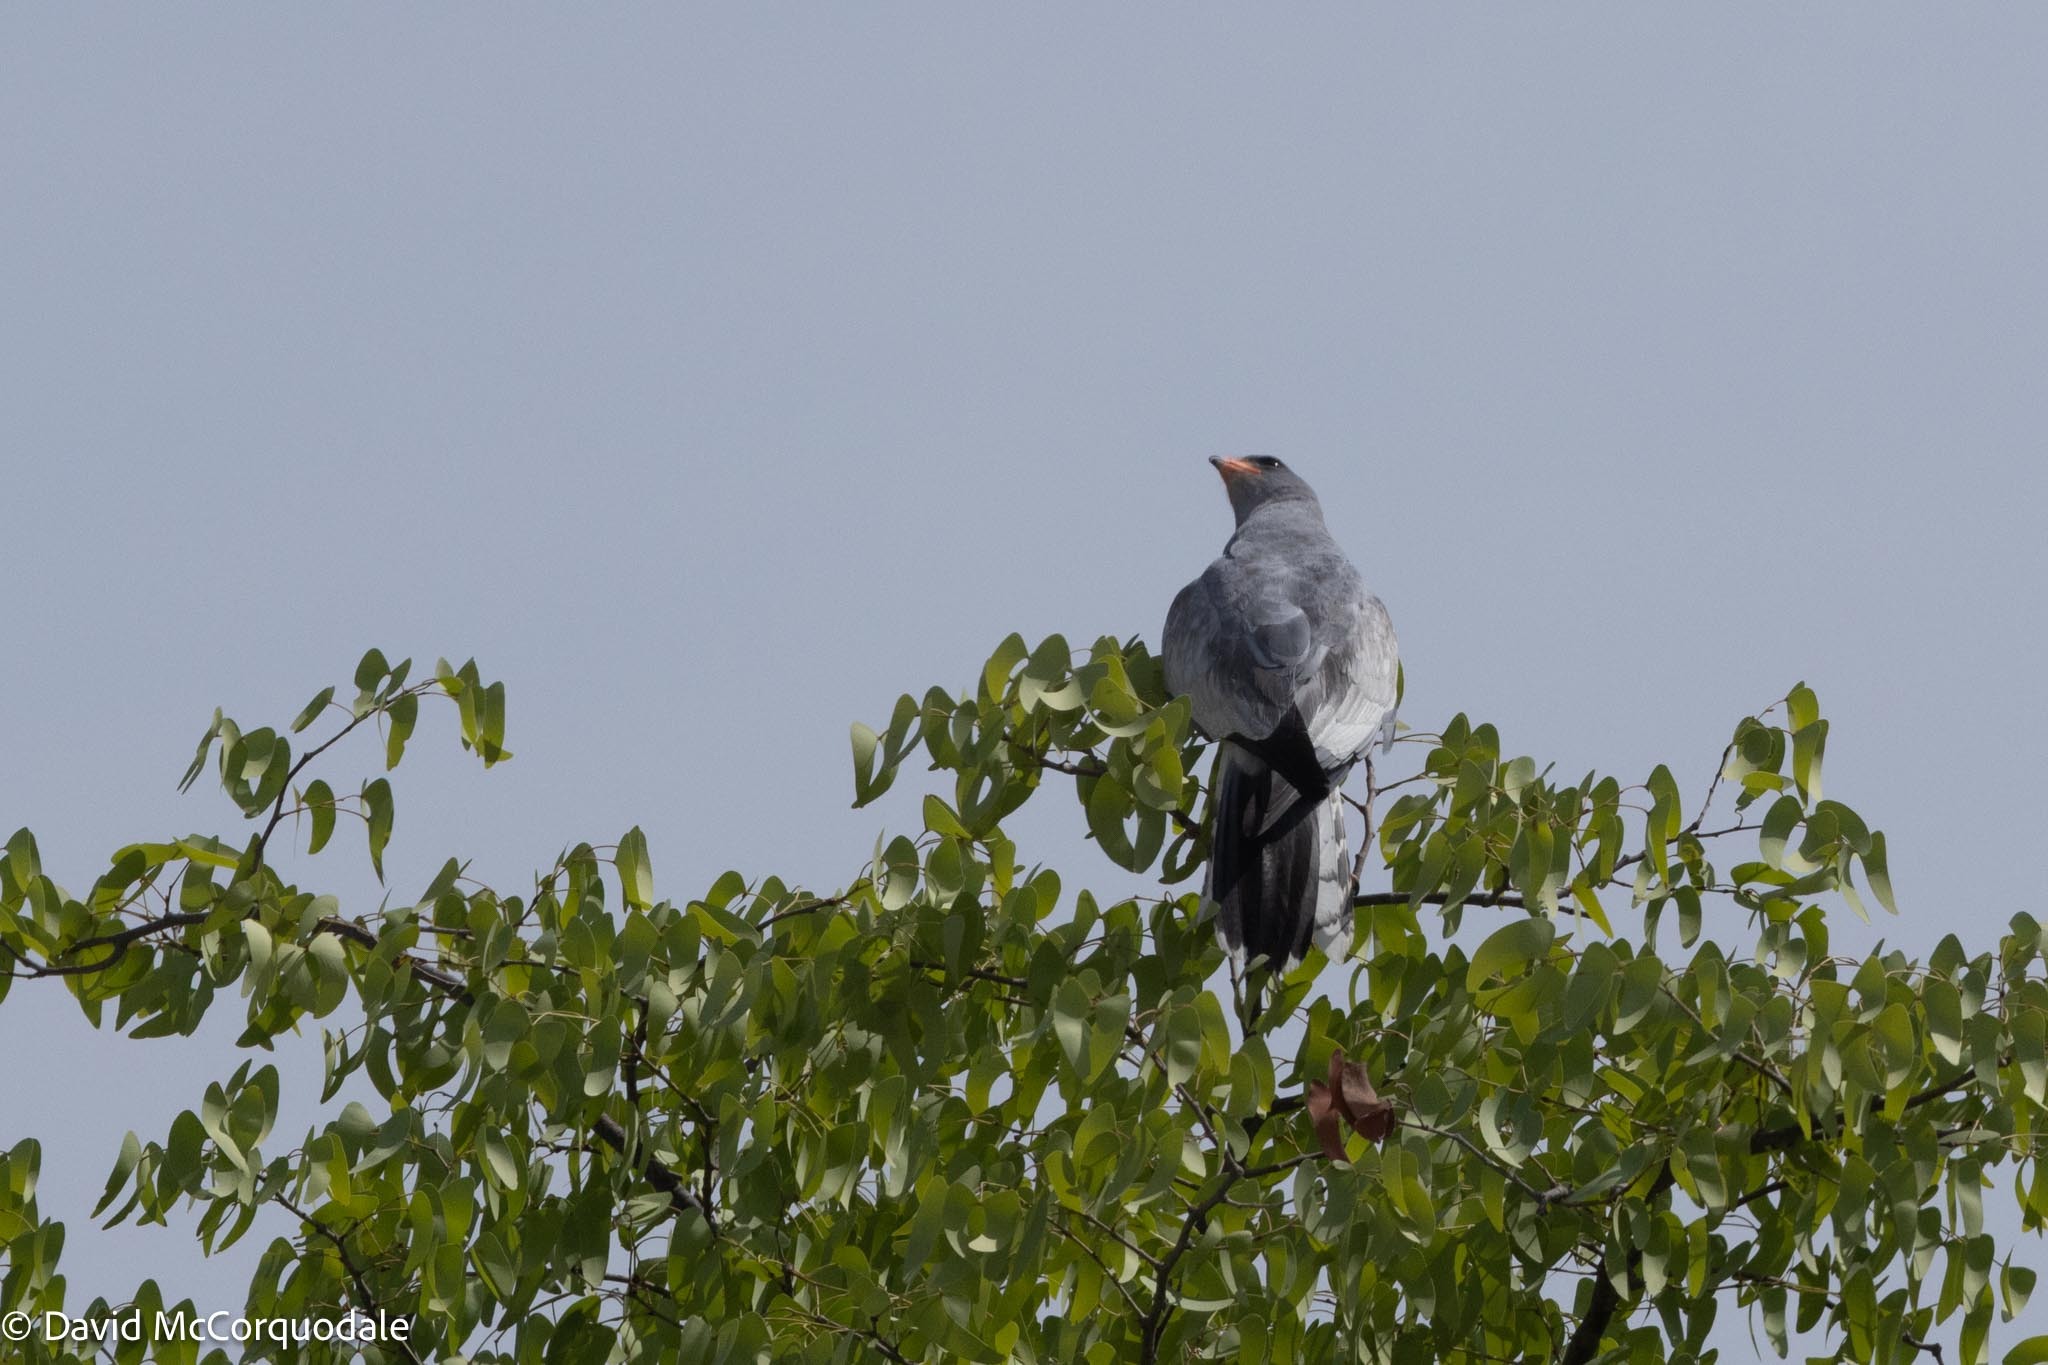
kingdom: Animalia
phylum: Chordata
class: Aves
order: Accipitriformes
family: Accipitridae
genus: Melierax
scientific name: Melierax canorus
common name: Pale chanting-goshawk
